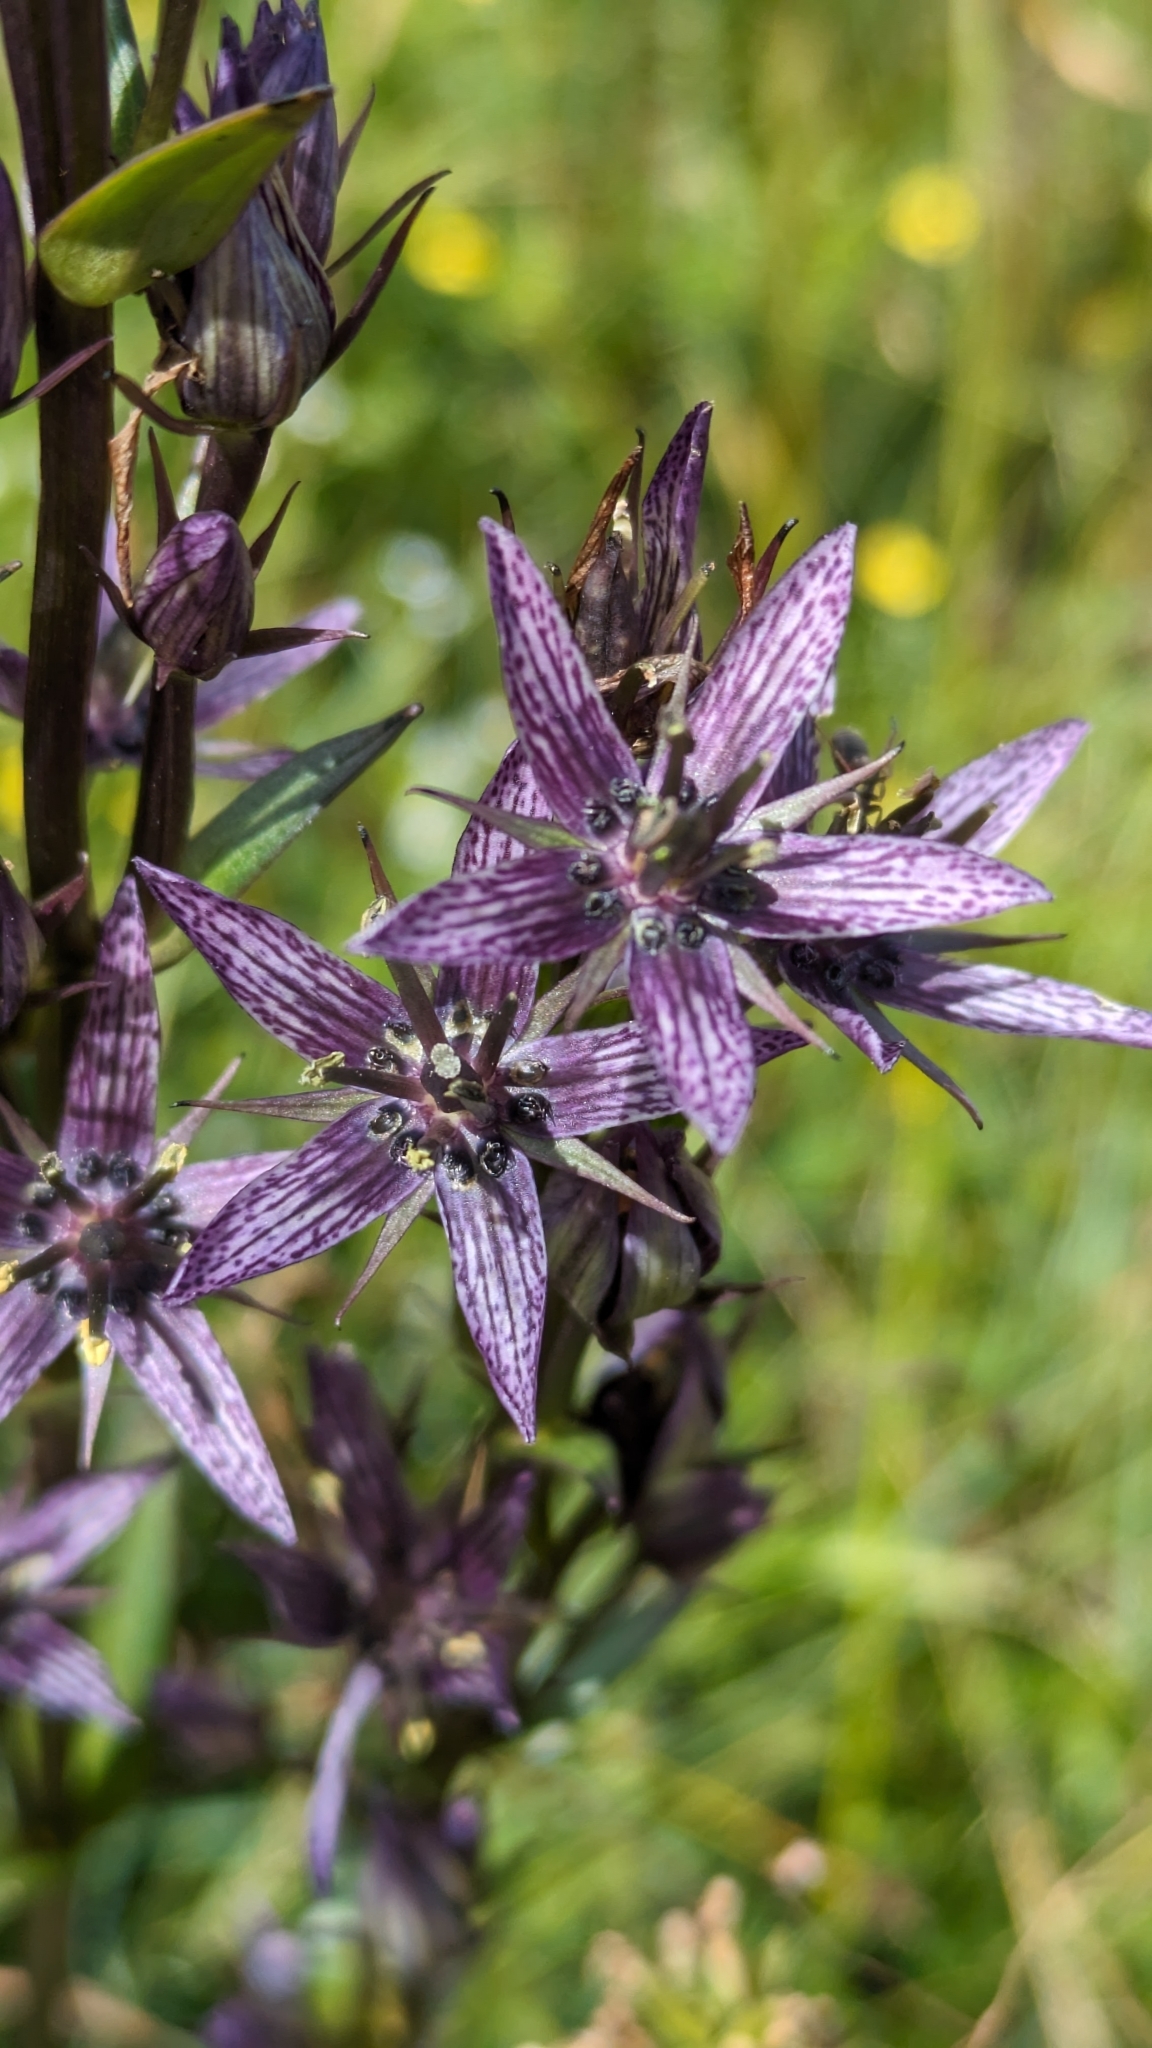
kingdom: Plantae
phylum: Tracheophyta
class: Magnoliopsida
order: Gentianales
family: Gentianaceae
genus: Swertia
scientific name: Swertia perennis
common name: Alpine bog swertia
